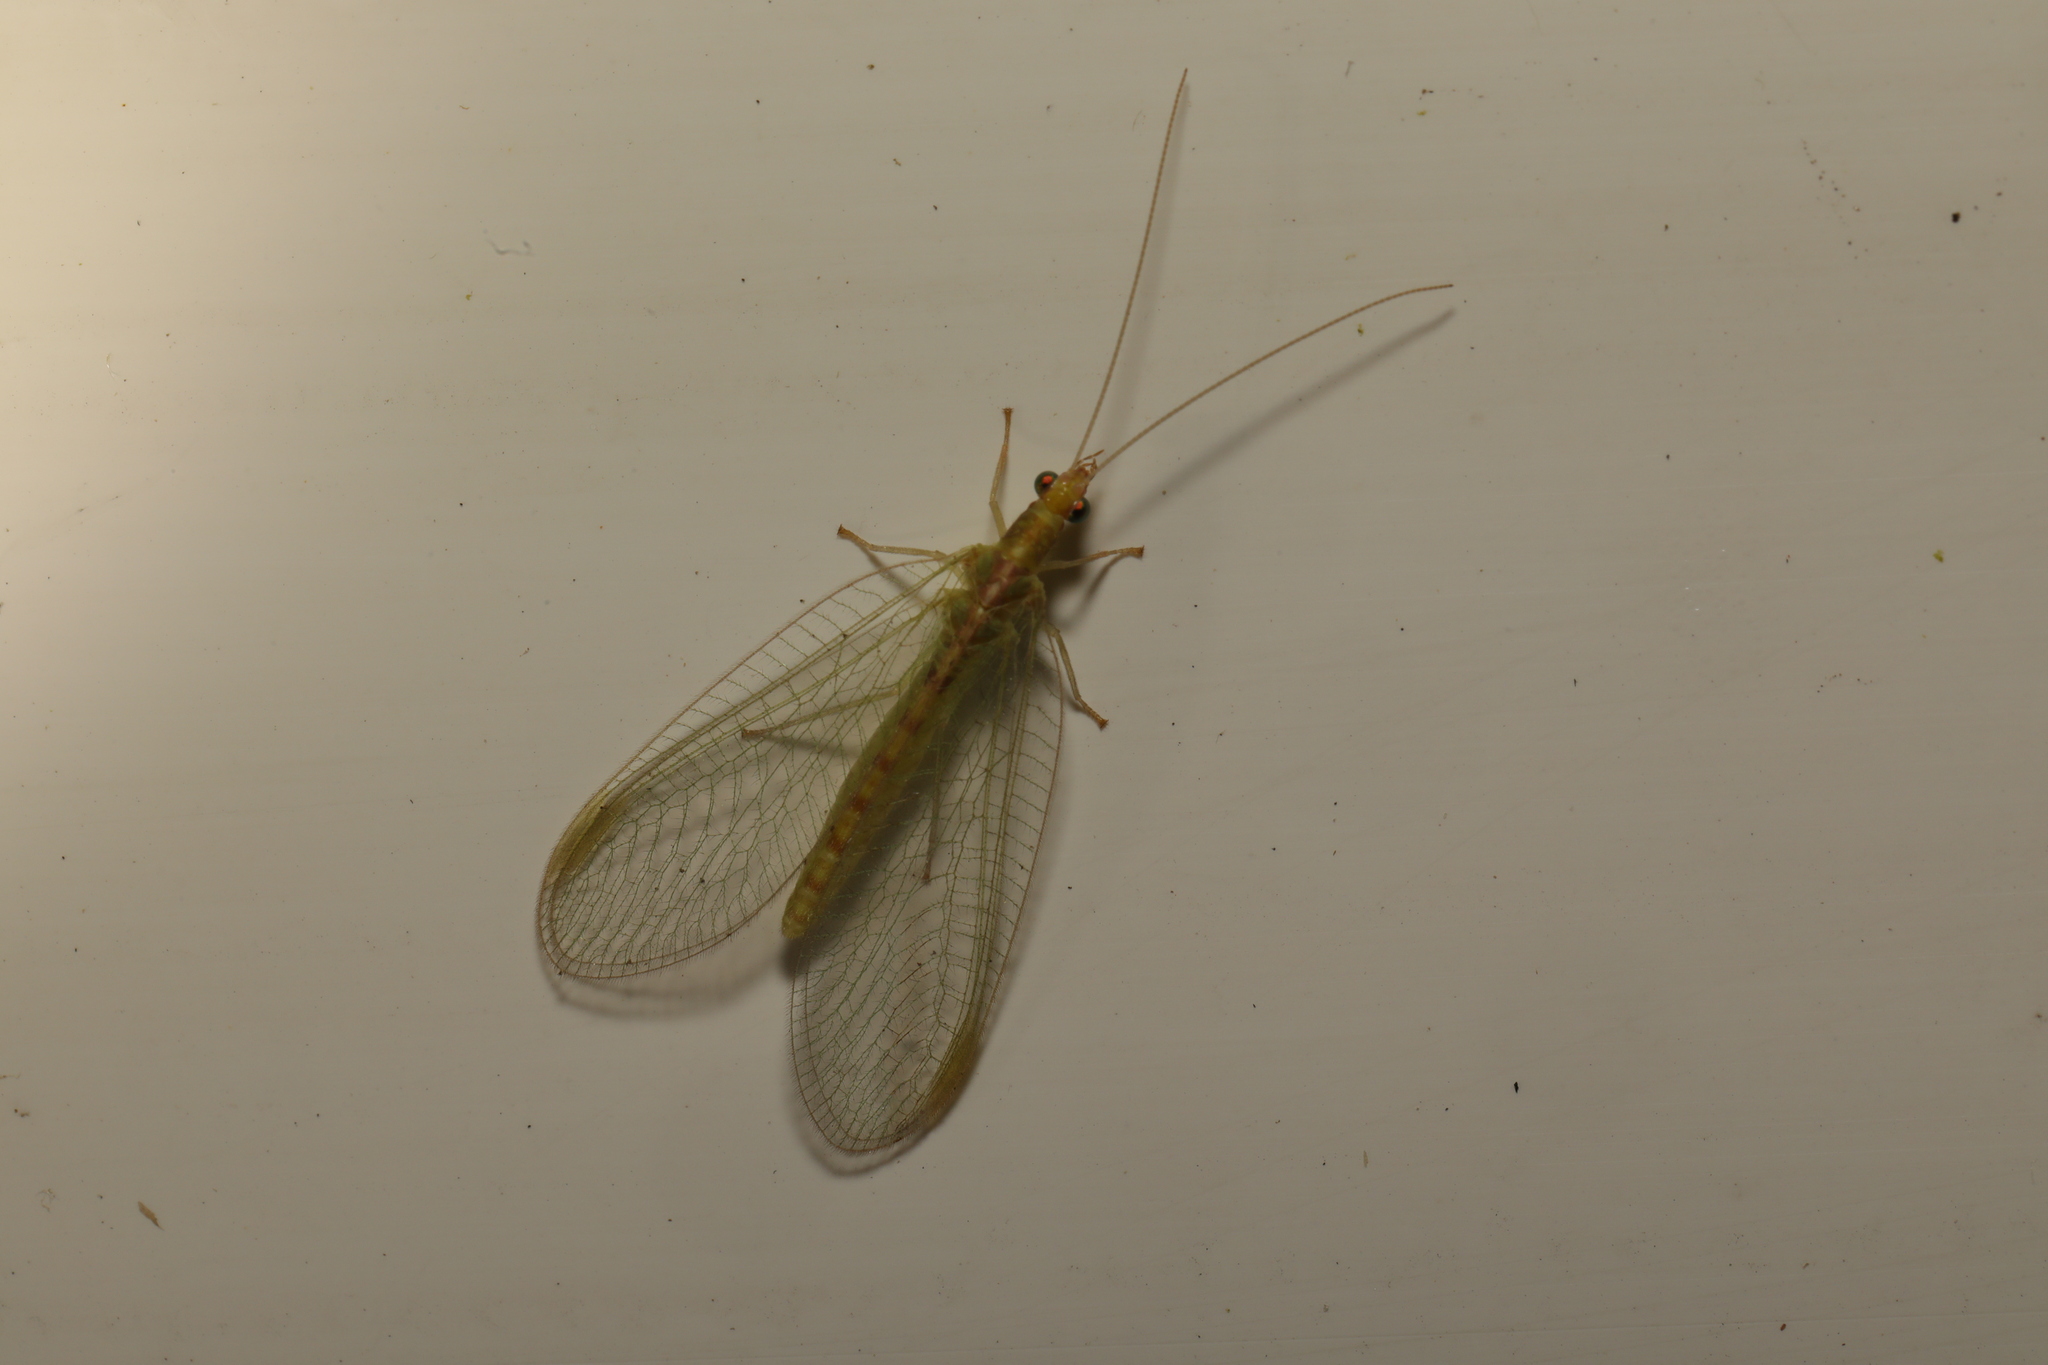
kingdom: Animalia
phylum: Arthropoda
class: Insecta
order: Neuroptera
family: Chrysopidae
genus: Chrysoperla
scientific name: Chrysoperla
